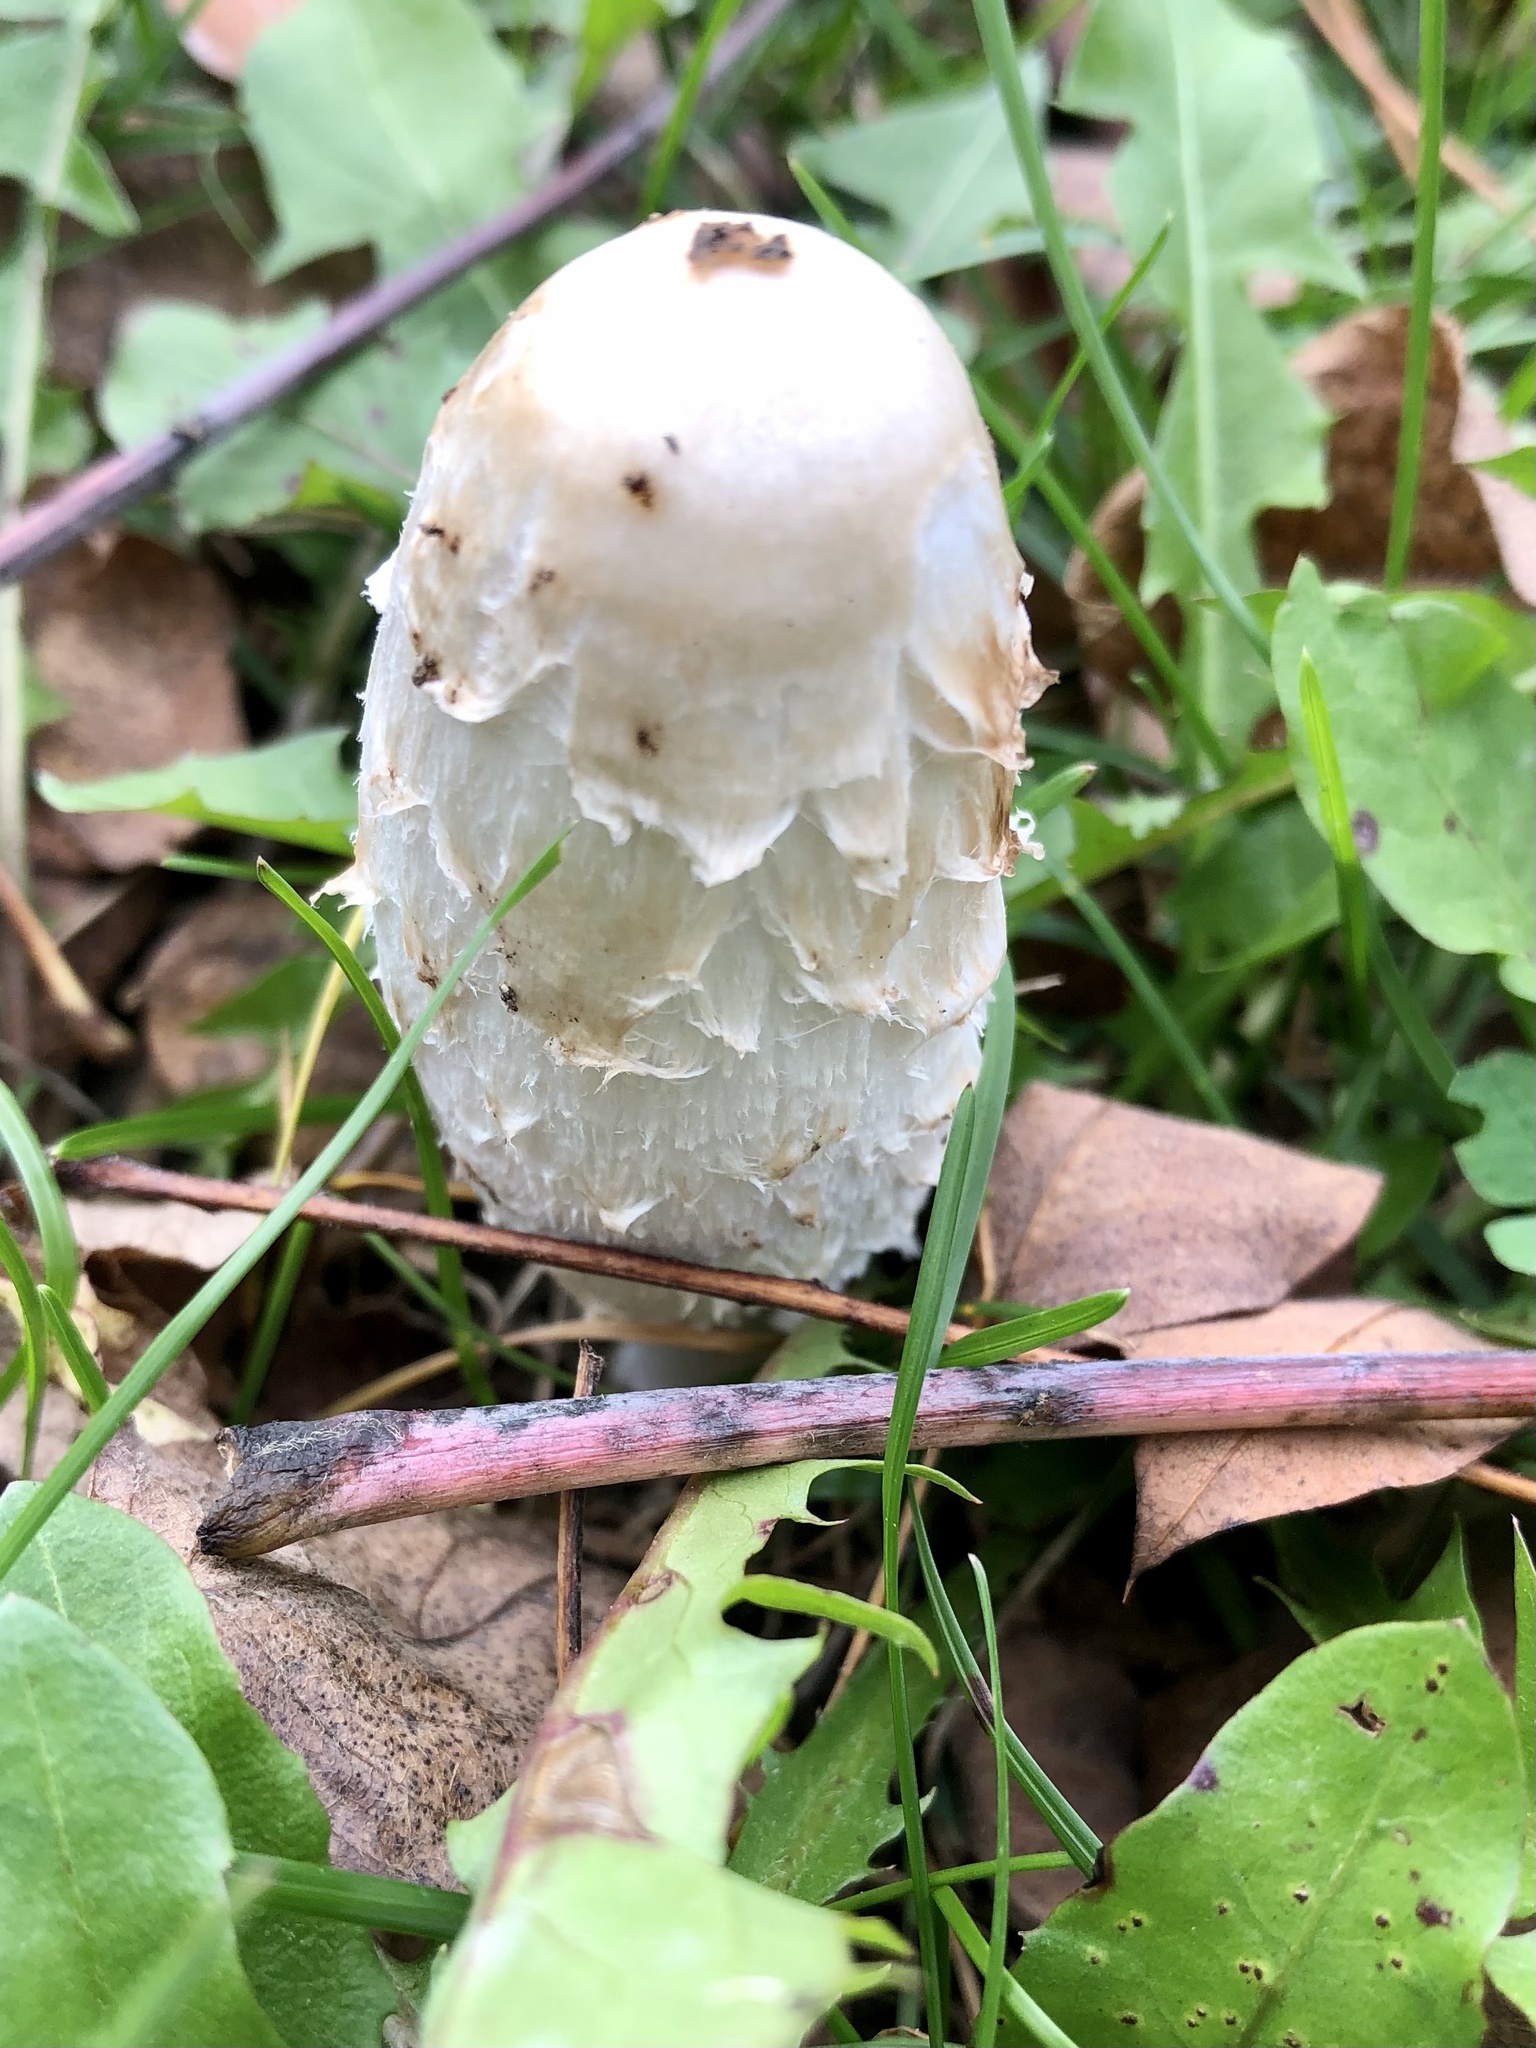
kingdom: Fungi
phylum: Basidiomycota
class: Agaricomycetes
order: Agaricales
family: Agaricaceae
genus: Coprinus
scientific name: Coprinus comatus
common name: Lawyer's wig
